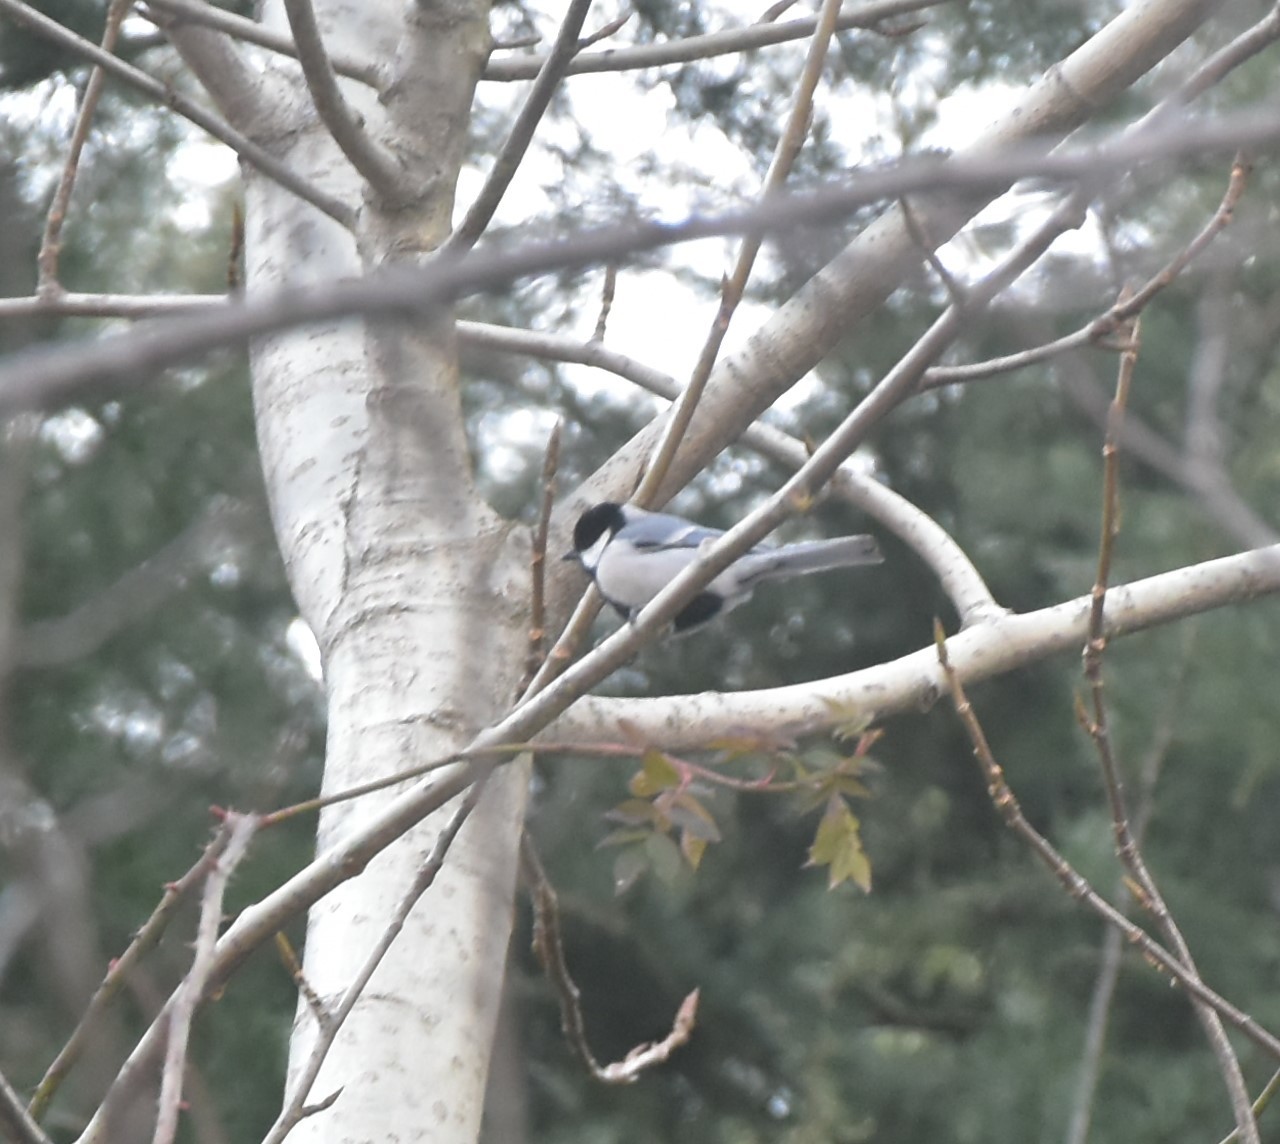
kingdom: Animalia
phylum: Chordata
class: Aves
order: Passeriformes
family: Paridae
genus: Parus
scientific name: Parus cinereus
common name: Cinereous tit
